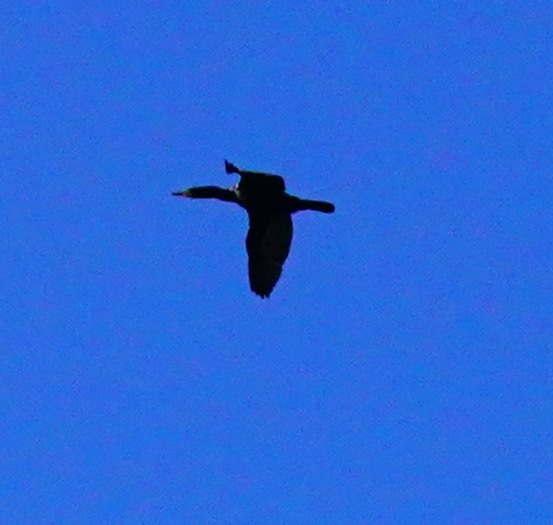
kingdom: Animalia
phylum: Chordata
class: Aves
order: Suliformes
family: Phalacrocoracidae
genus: Phalacrocorax
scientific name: Phalacrocorax auritus
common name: Double-crested cormorant
